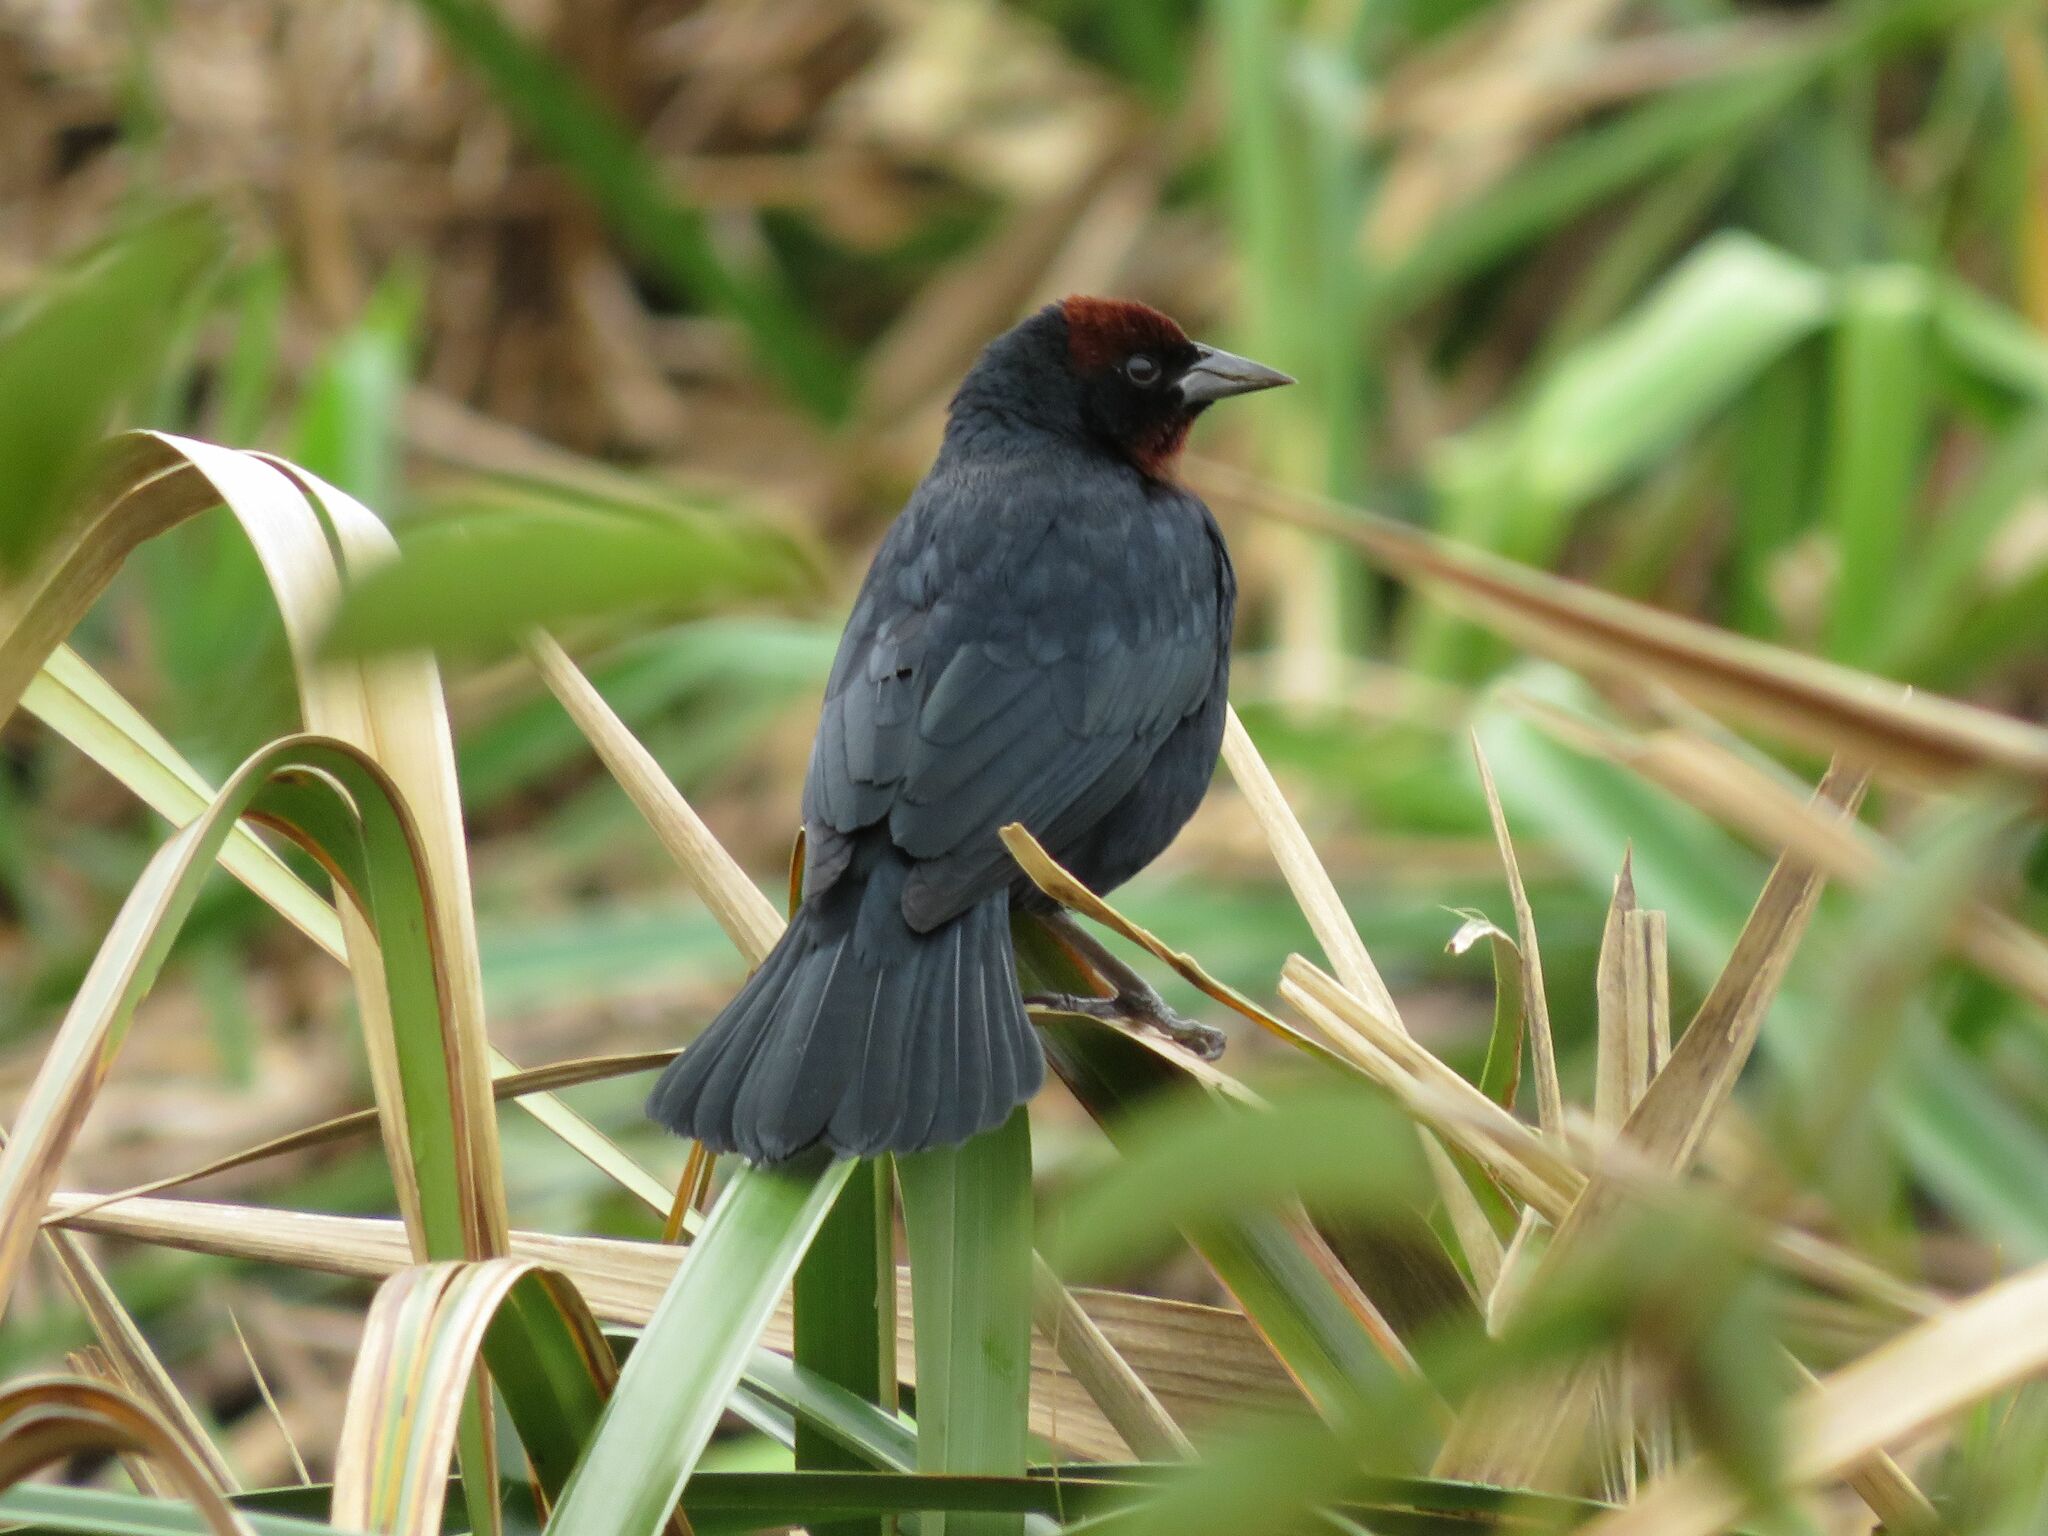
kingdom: Animalia
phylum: Chordata
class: Aves
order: Passeriformes
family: Icteridae
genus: Chrysomus
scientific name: Chrysomus ruficapillus
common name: Chestnut-capped blackbird
